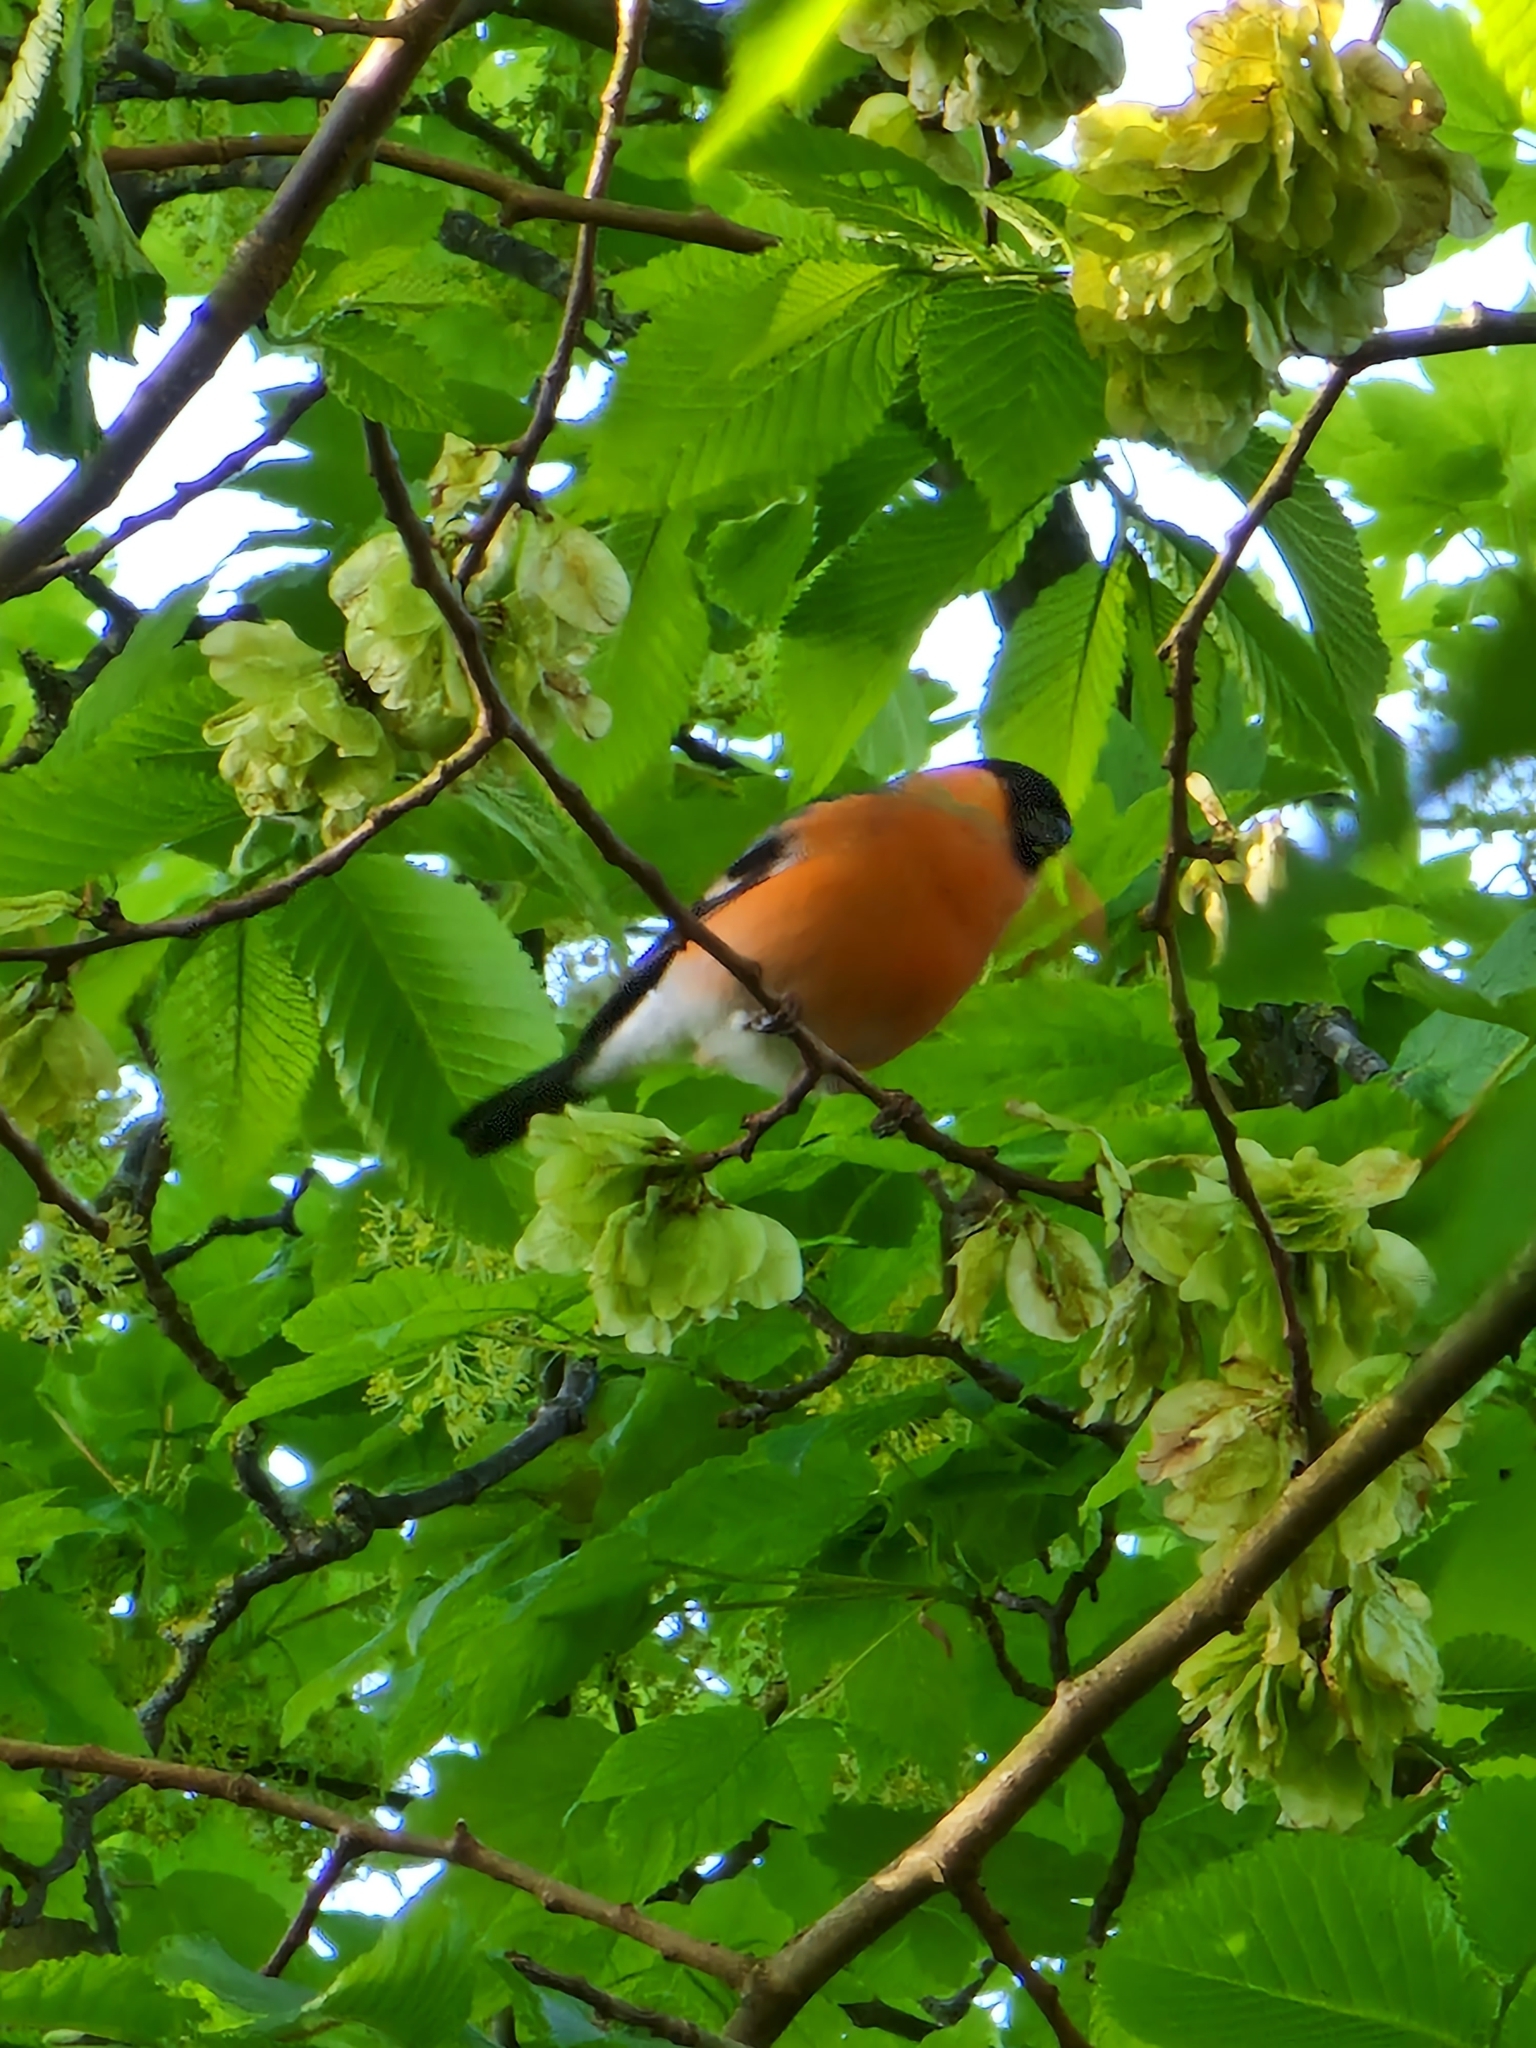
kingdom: Animalia
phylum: Chordata
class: Aves
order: Passeriformes
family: Fringillidae
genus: Pyrrhula
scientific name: Pyrrhula pyrrhula
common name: Eurasian bullfinch
